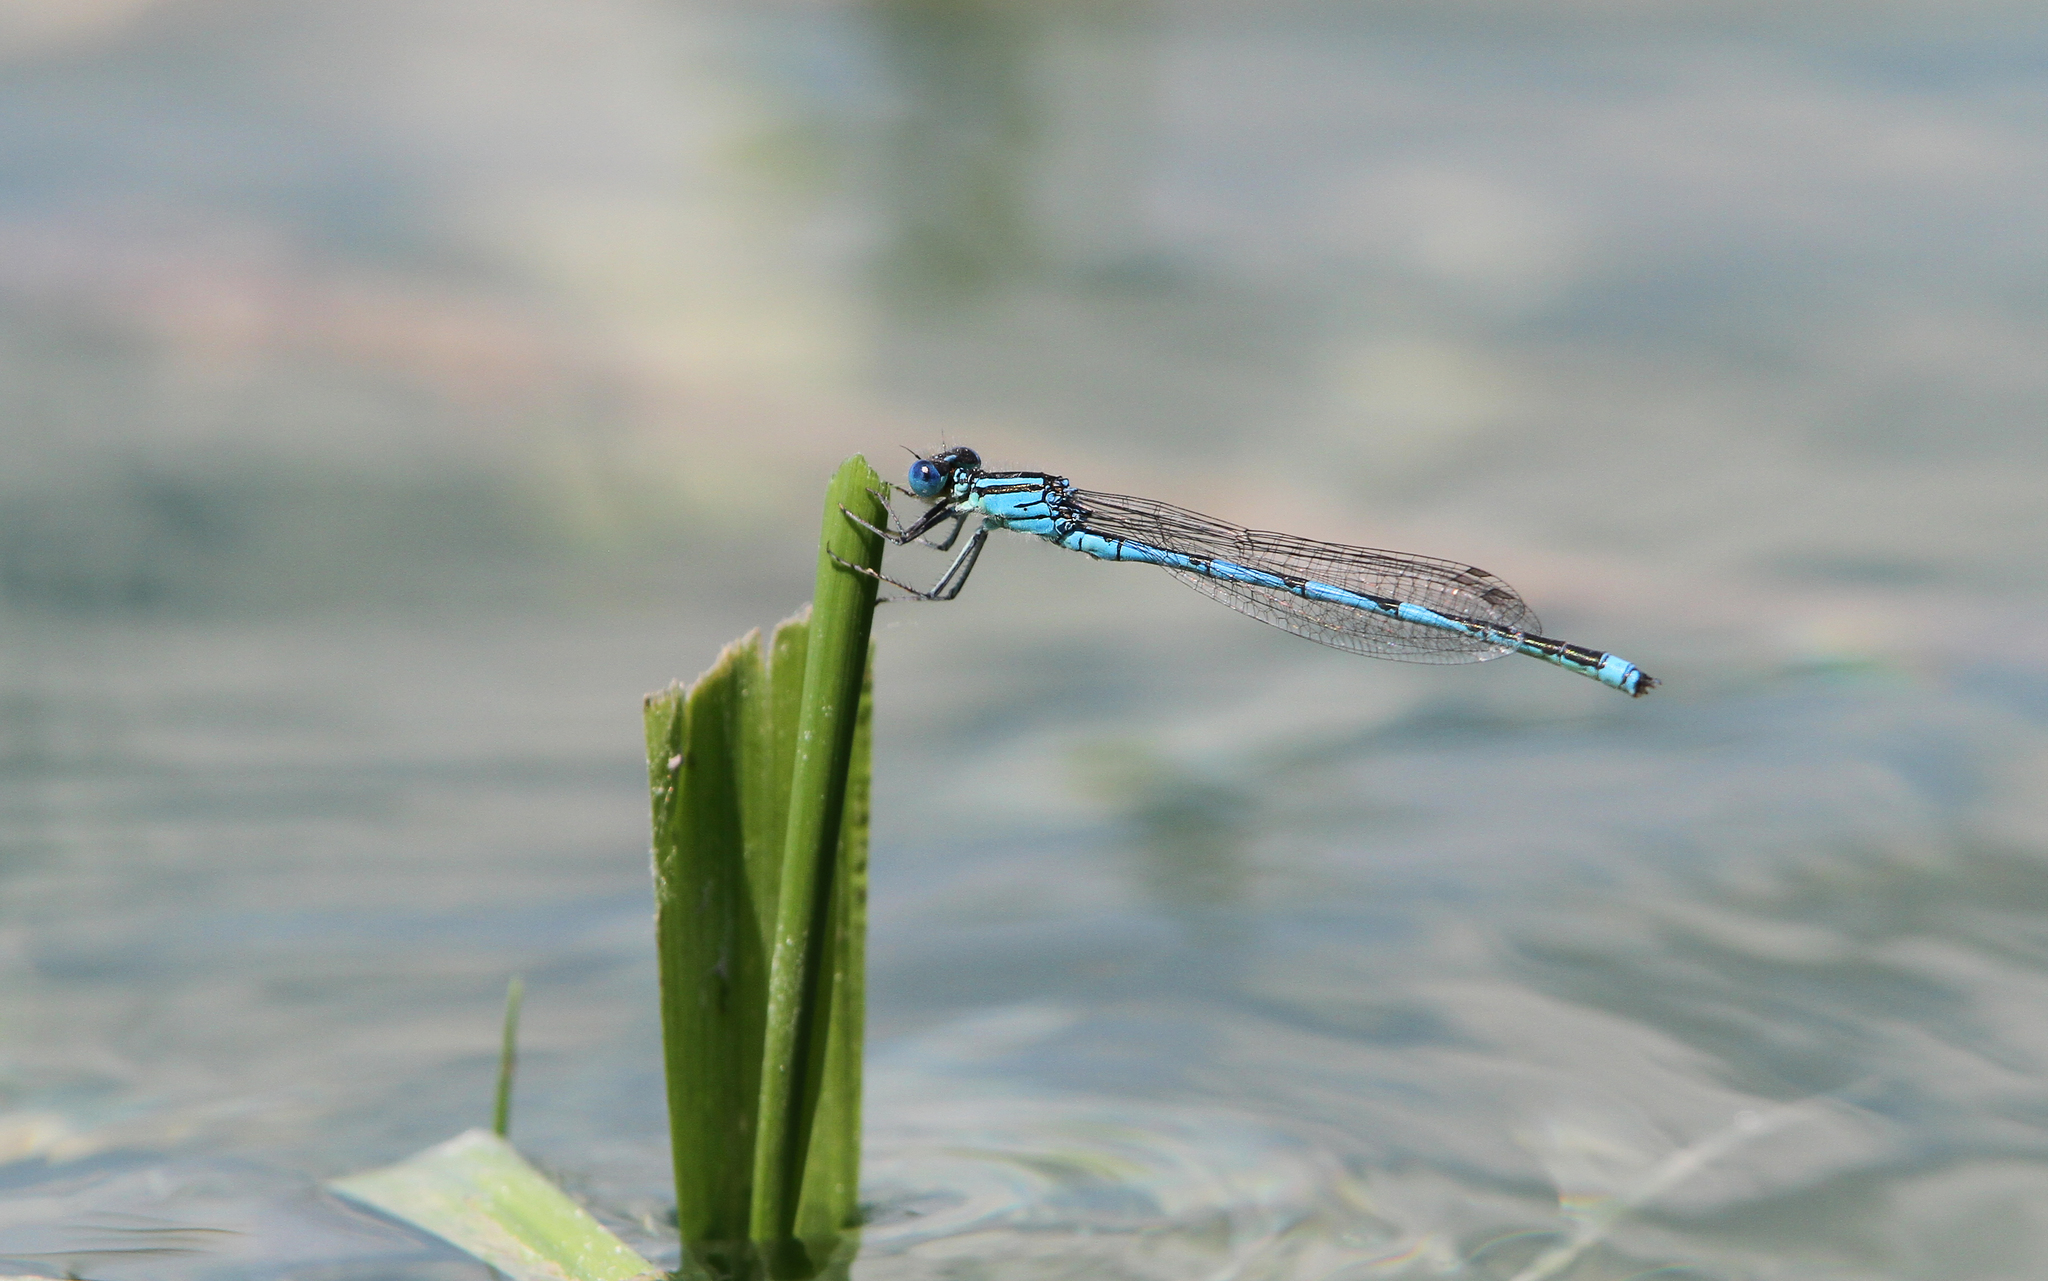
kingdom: Animalia
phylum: Arthropoda
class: Insecta
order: Odonata
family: Coenagrionidae
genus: Erythromma
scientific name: Erythromma lindenii
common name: Blue-eye
